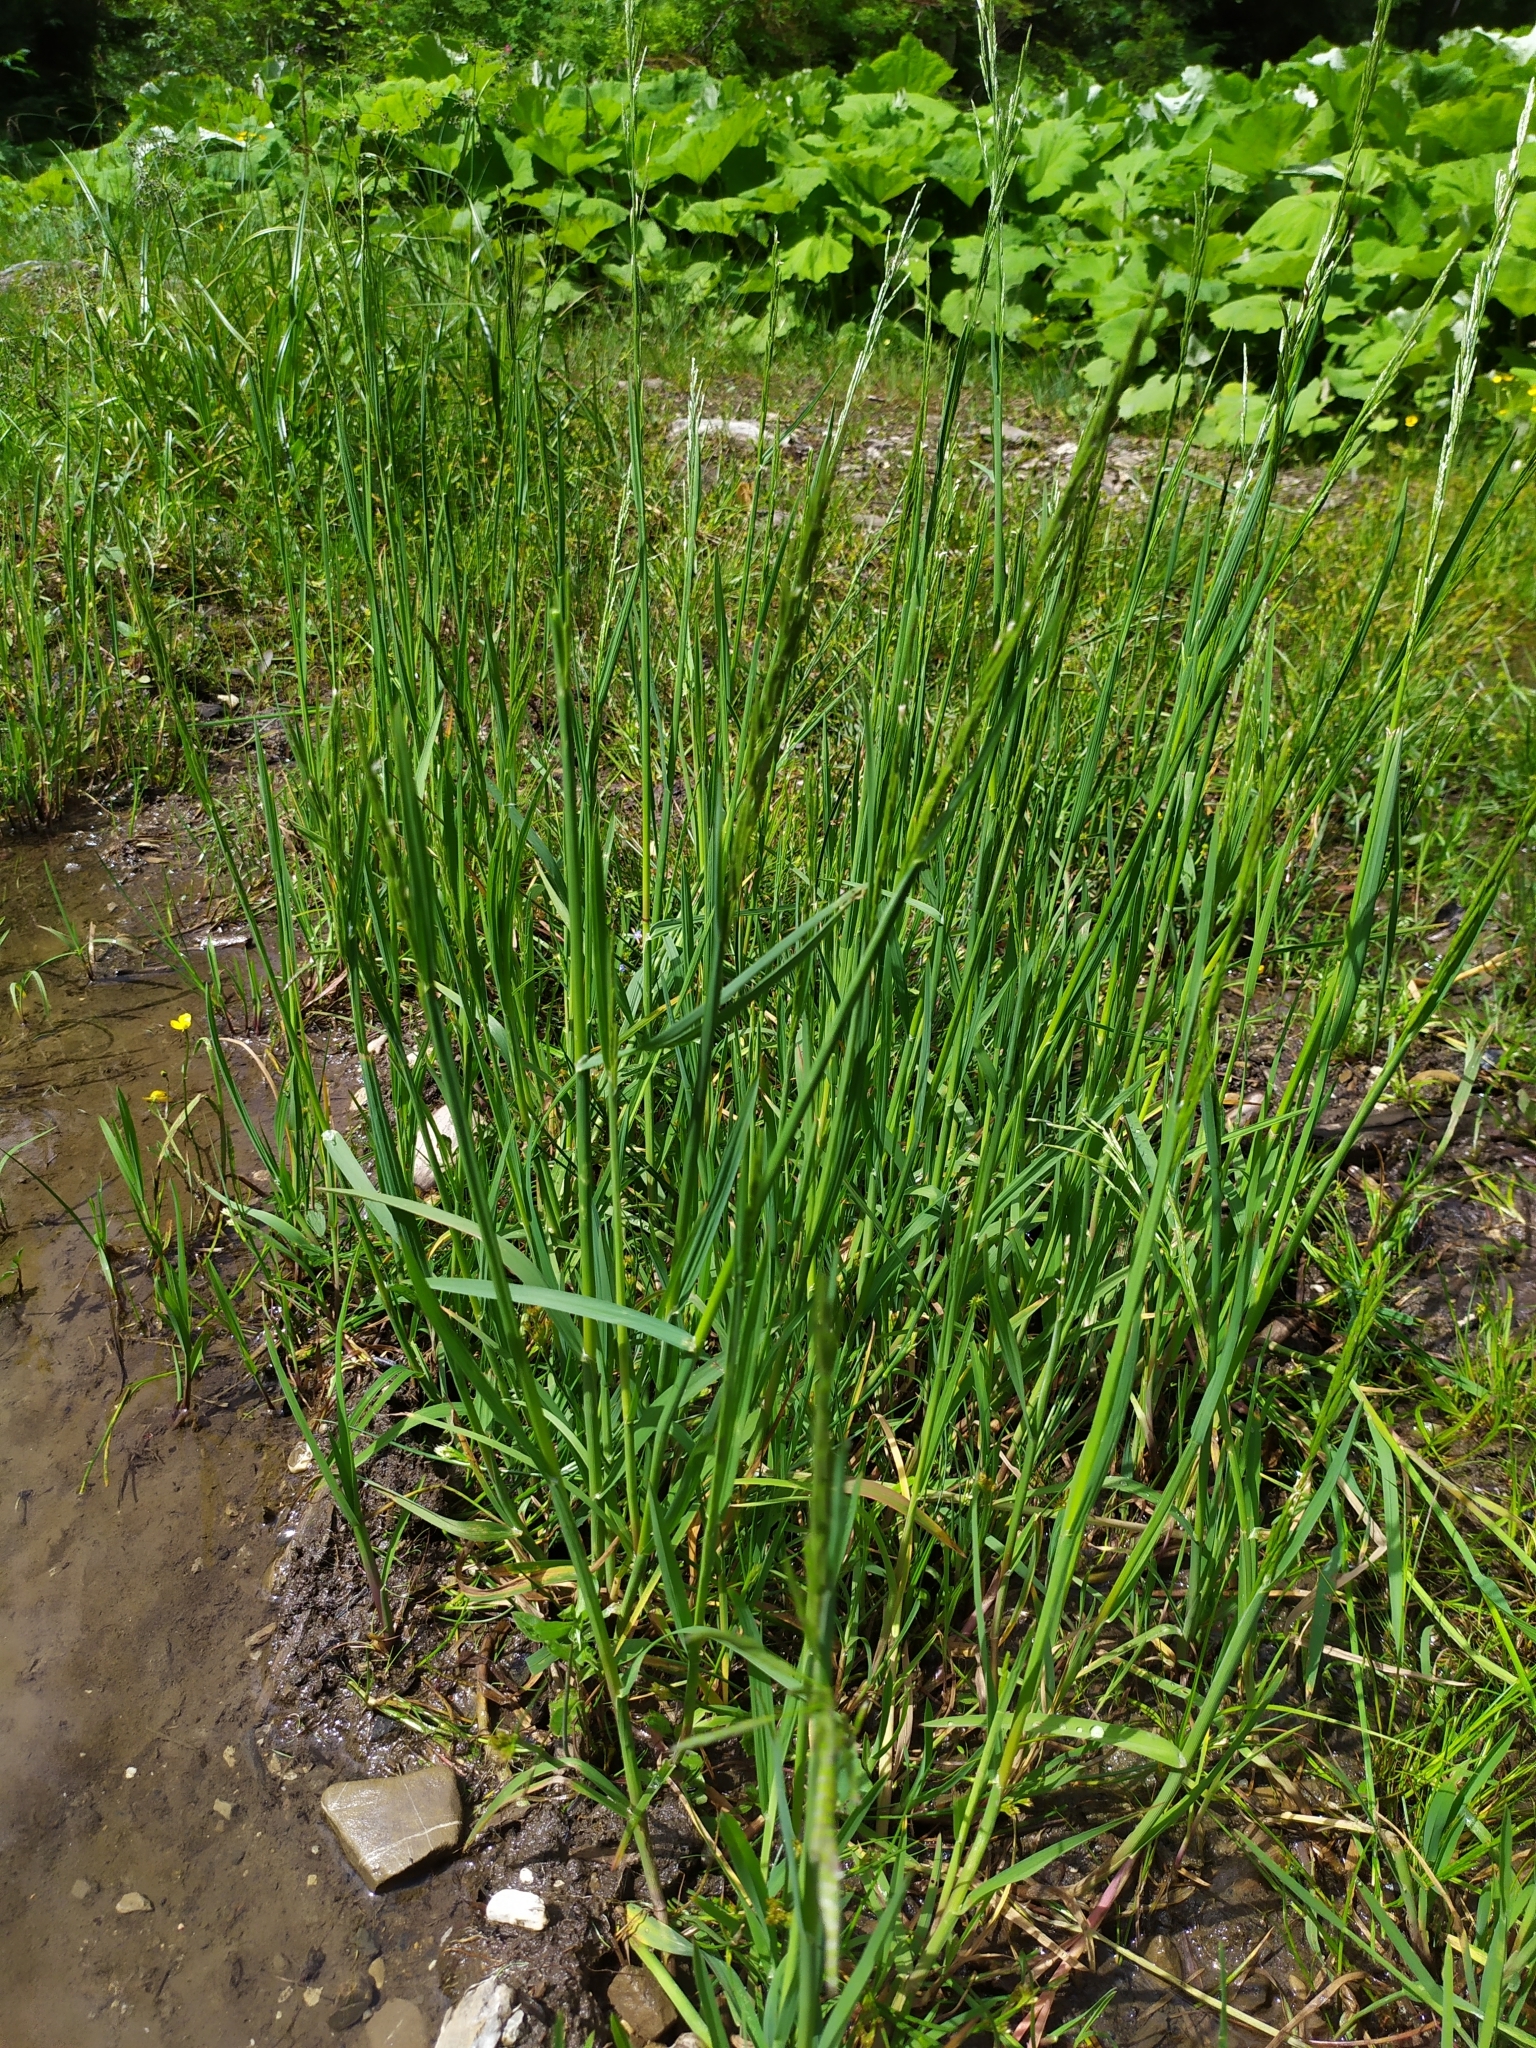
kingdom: Plantae
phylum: Tracheophyta
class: Liliopsida
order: Poales
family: Poaceae
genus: Glyceria
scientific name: Glyceria declinata
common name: Small sweet-grass
